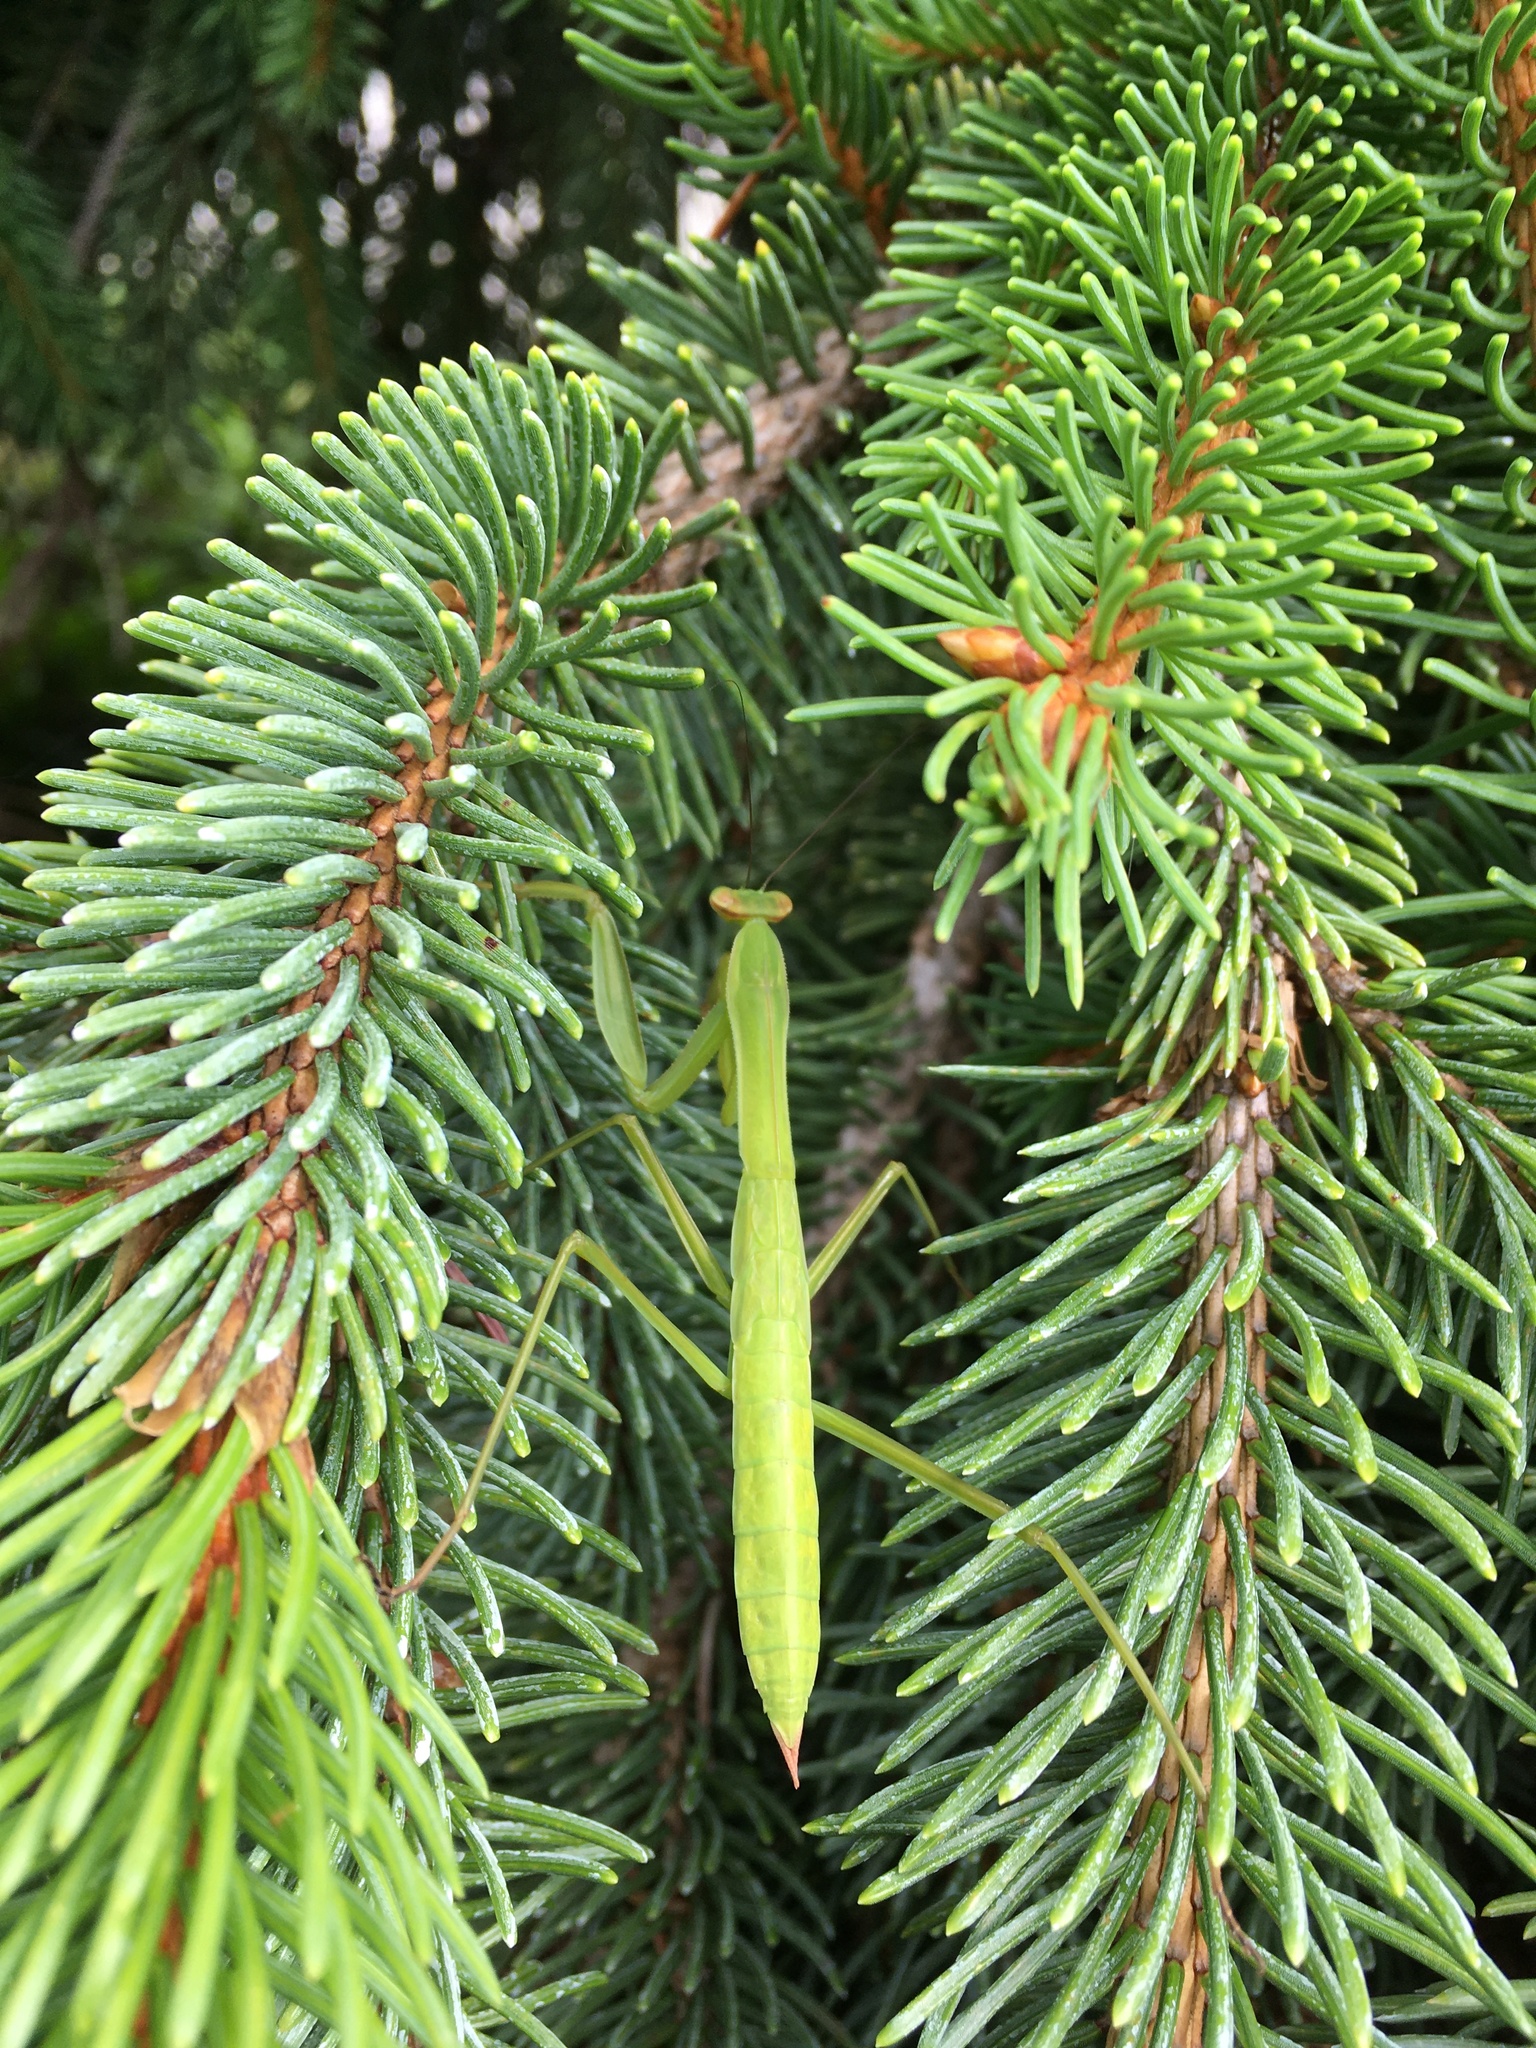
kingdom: Animalia
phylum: Arthropoda
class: Insecta
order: Mantodea
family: Mantidae
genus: Tenodera
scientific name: Tenodera sinensis
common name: Chinese mantis
